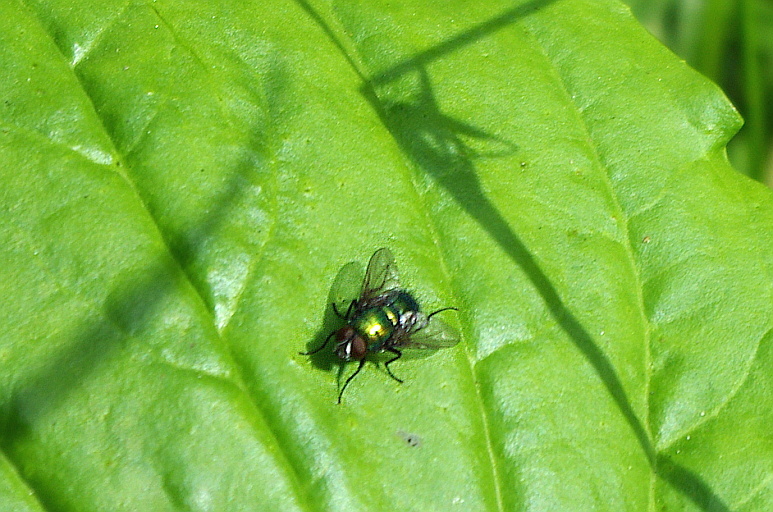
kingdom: Animalia
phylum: Arthropoda
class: Insecta
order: Diptera
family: Calliphoridae
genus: Lucilia
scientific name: Lucilia sericata
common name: Blow fly
